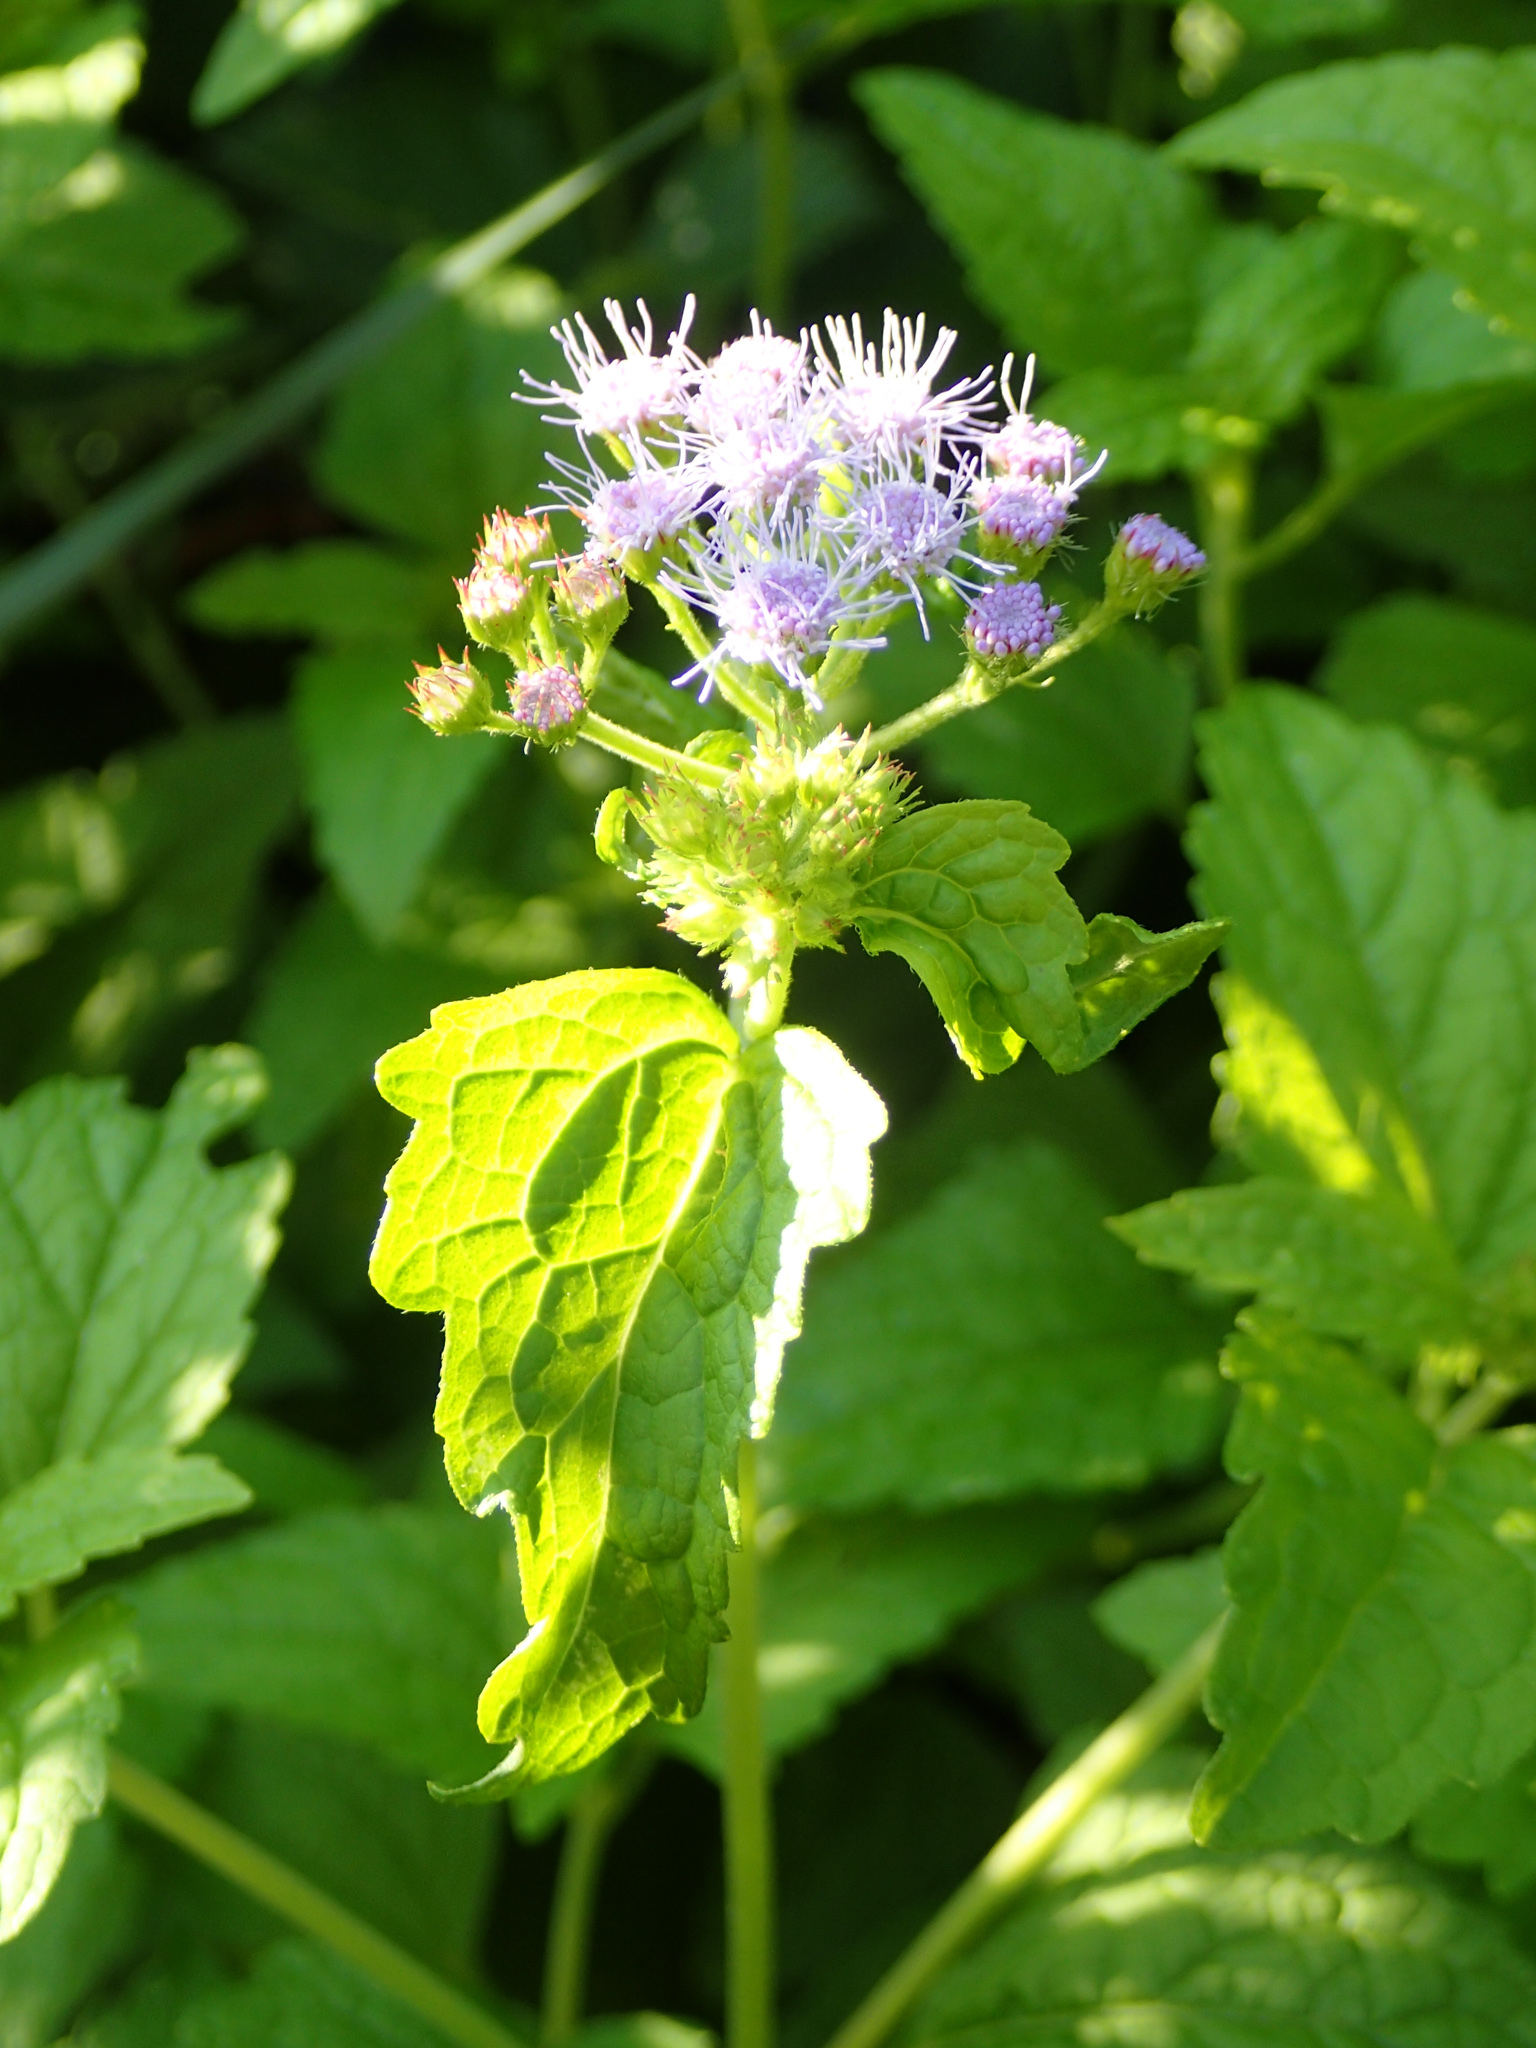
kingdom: Plantae
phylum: Tracheophyta
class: Magnoliopsida
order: Asterales
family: Asteraceae
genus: Conoclinium
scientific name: Conoclinium coelestinum
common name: Blue mistflower
